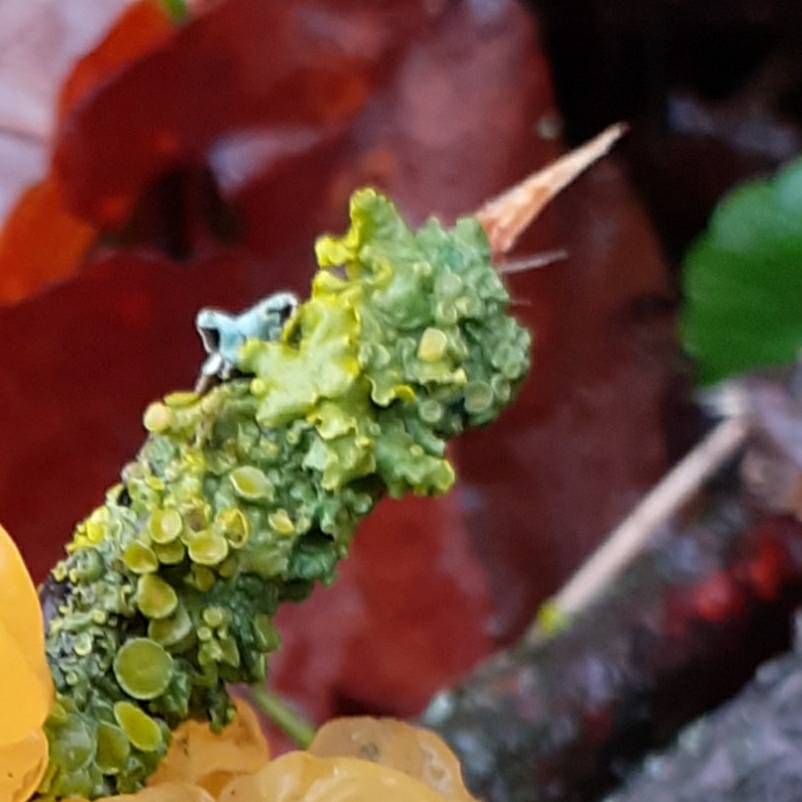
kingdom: Fungi
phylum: Ascomycota
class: Lecanoromycetes
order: Teloschistales
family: Teloschistaceae
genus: Xanthoria
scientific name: Xanthoria parietina
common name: Common orange lichen
